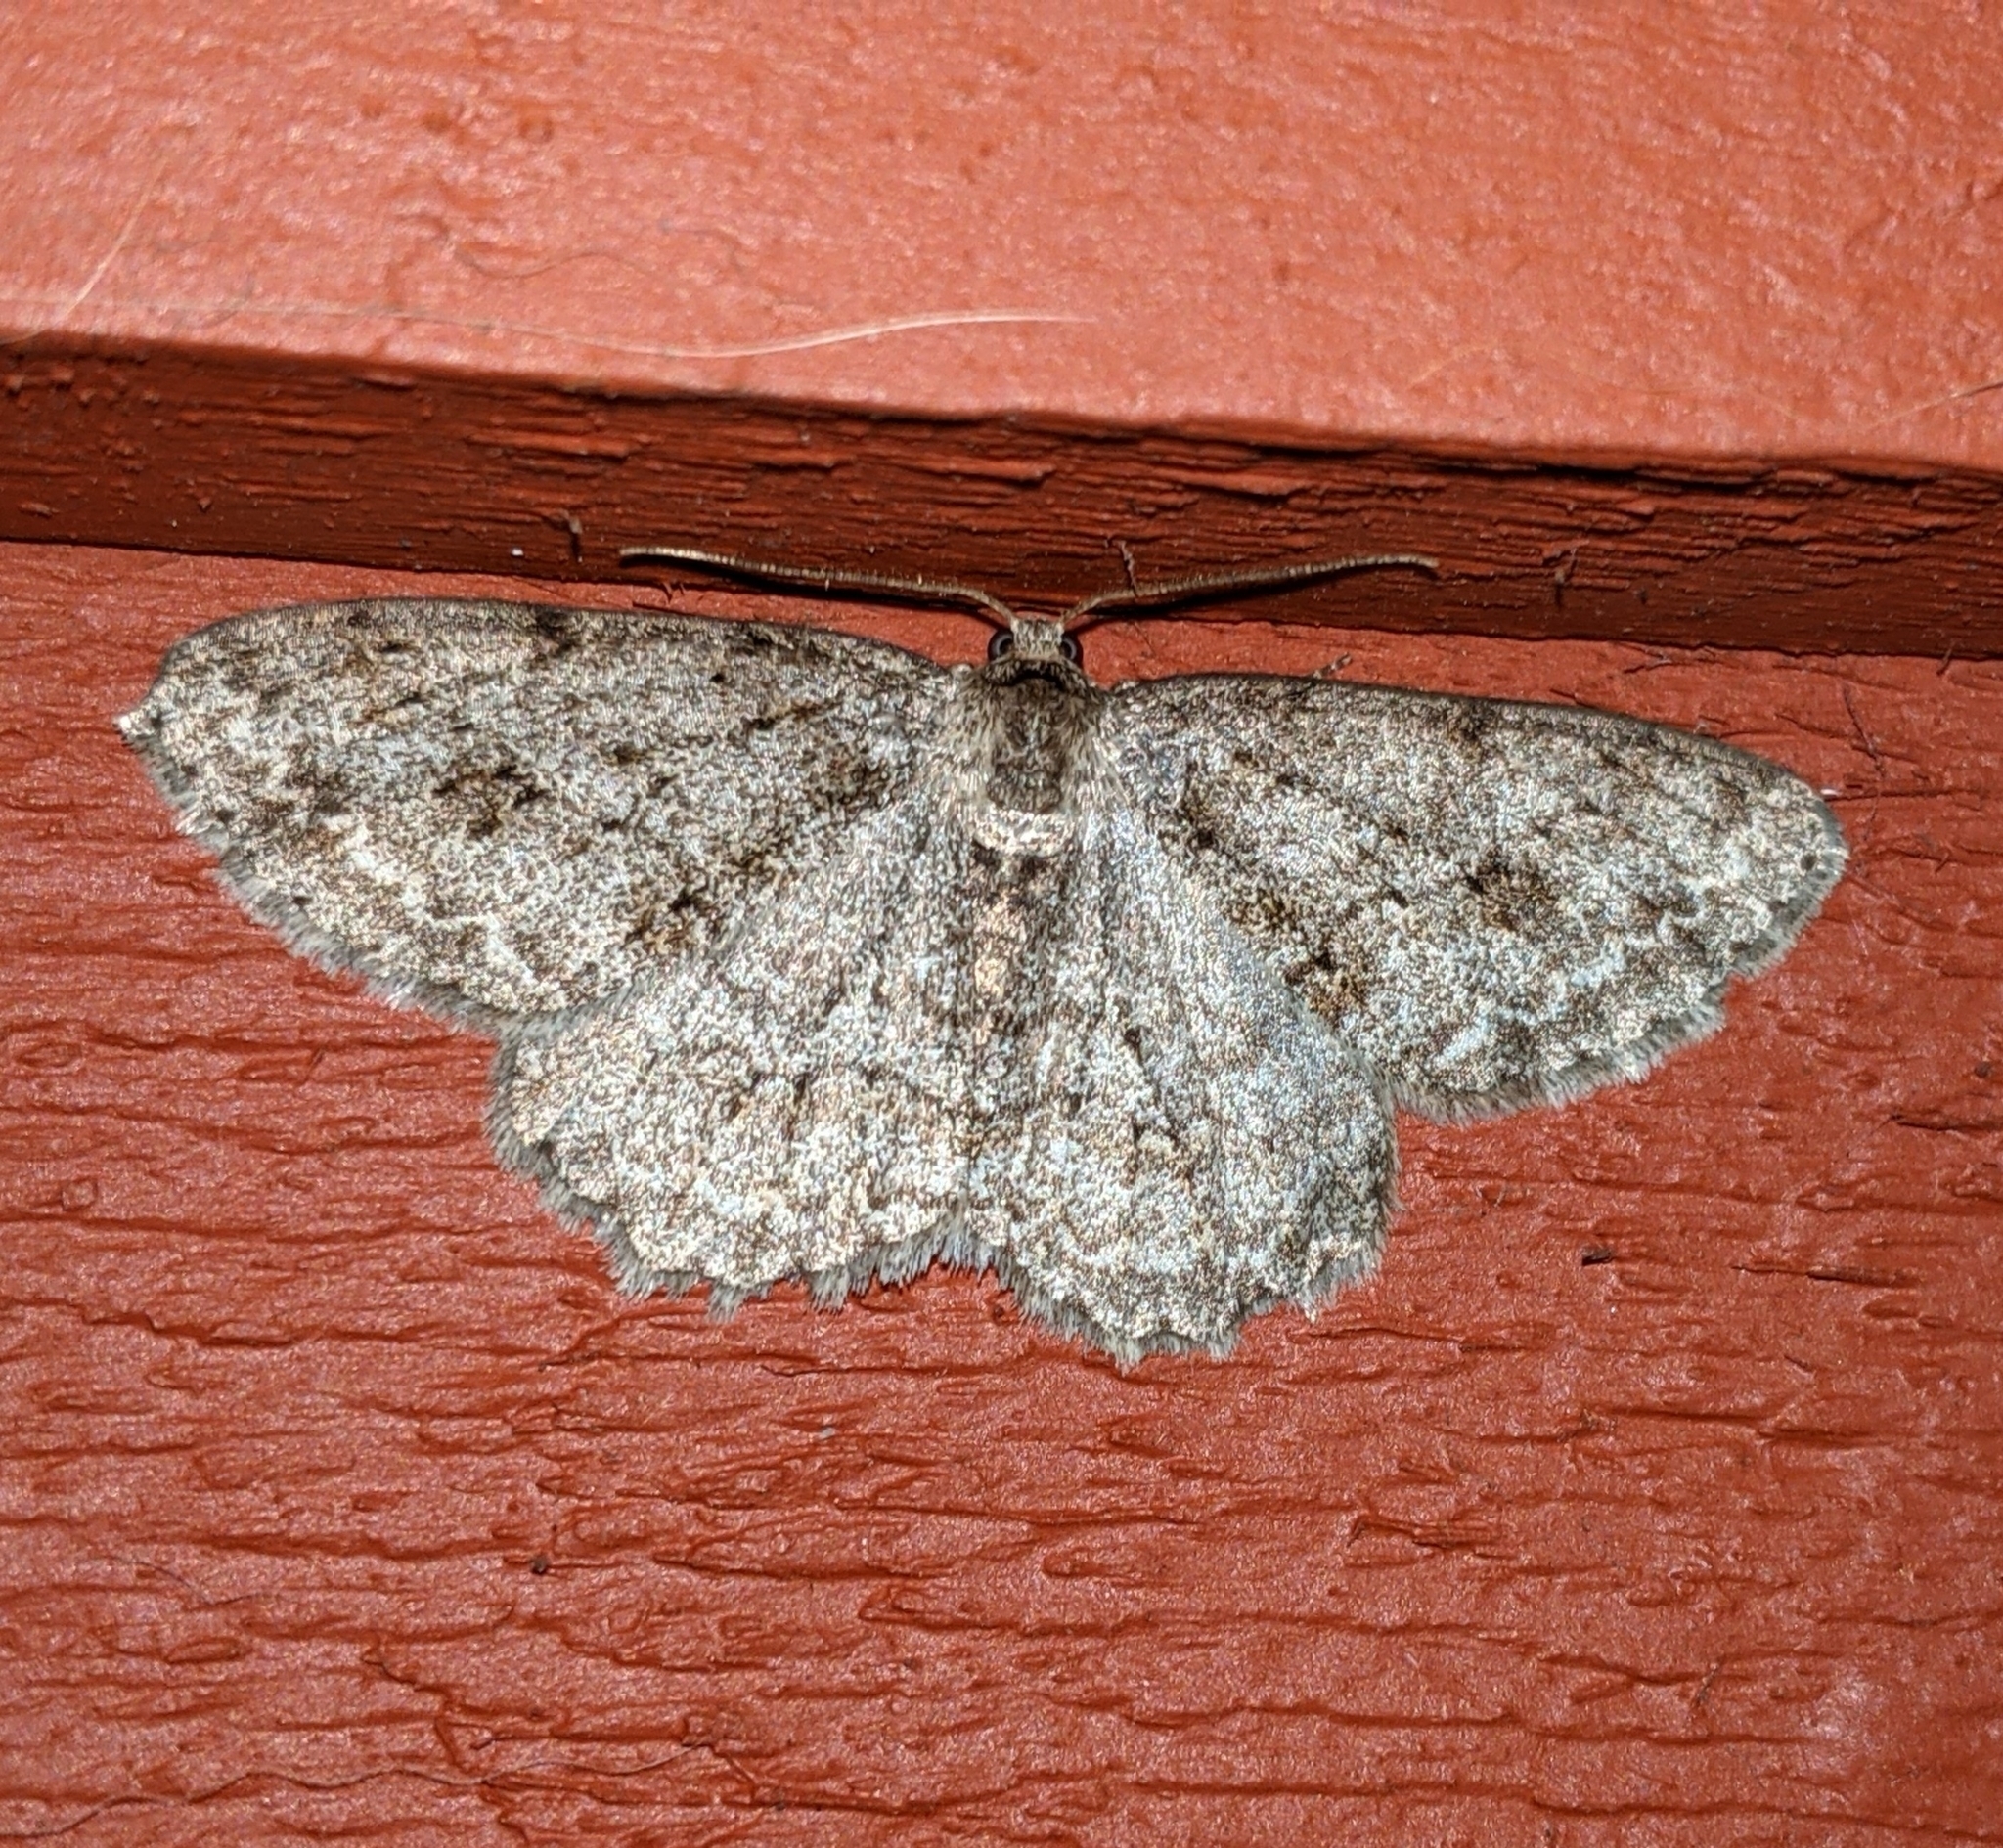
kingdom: Animalia
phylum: Arthropoda
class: Insecta
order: Lepidoptera
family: Geometridae
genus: Ectropis
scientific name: Ectropis crepuscularia
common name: Engrailed
